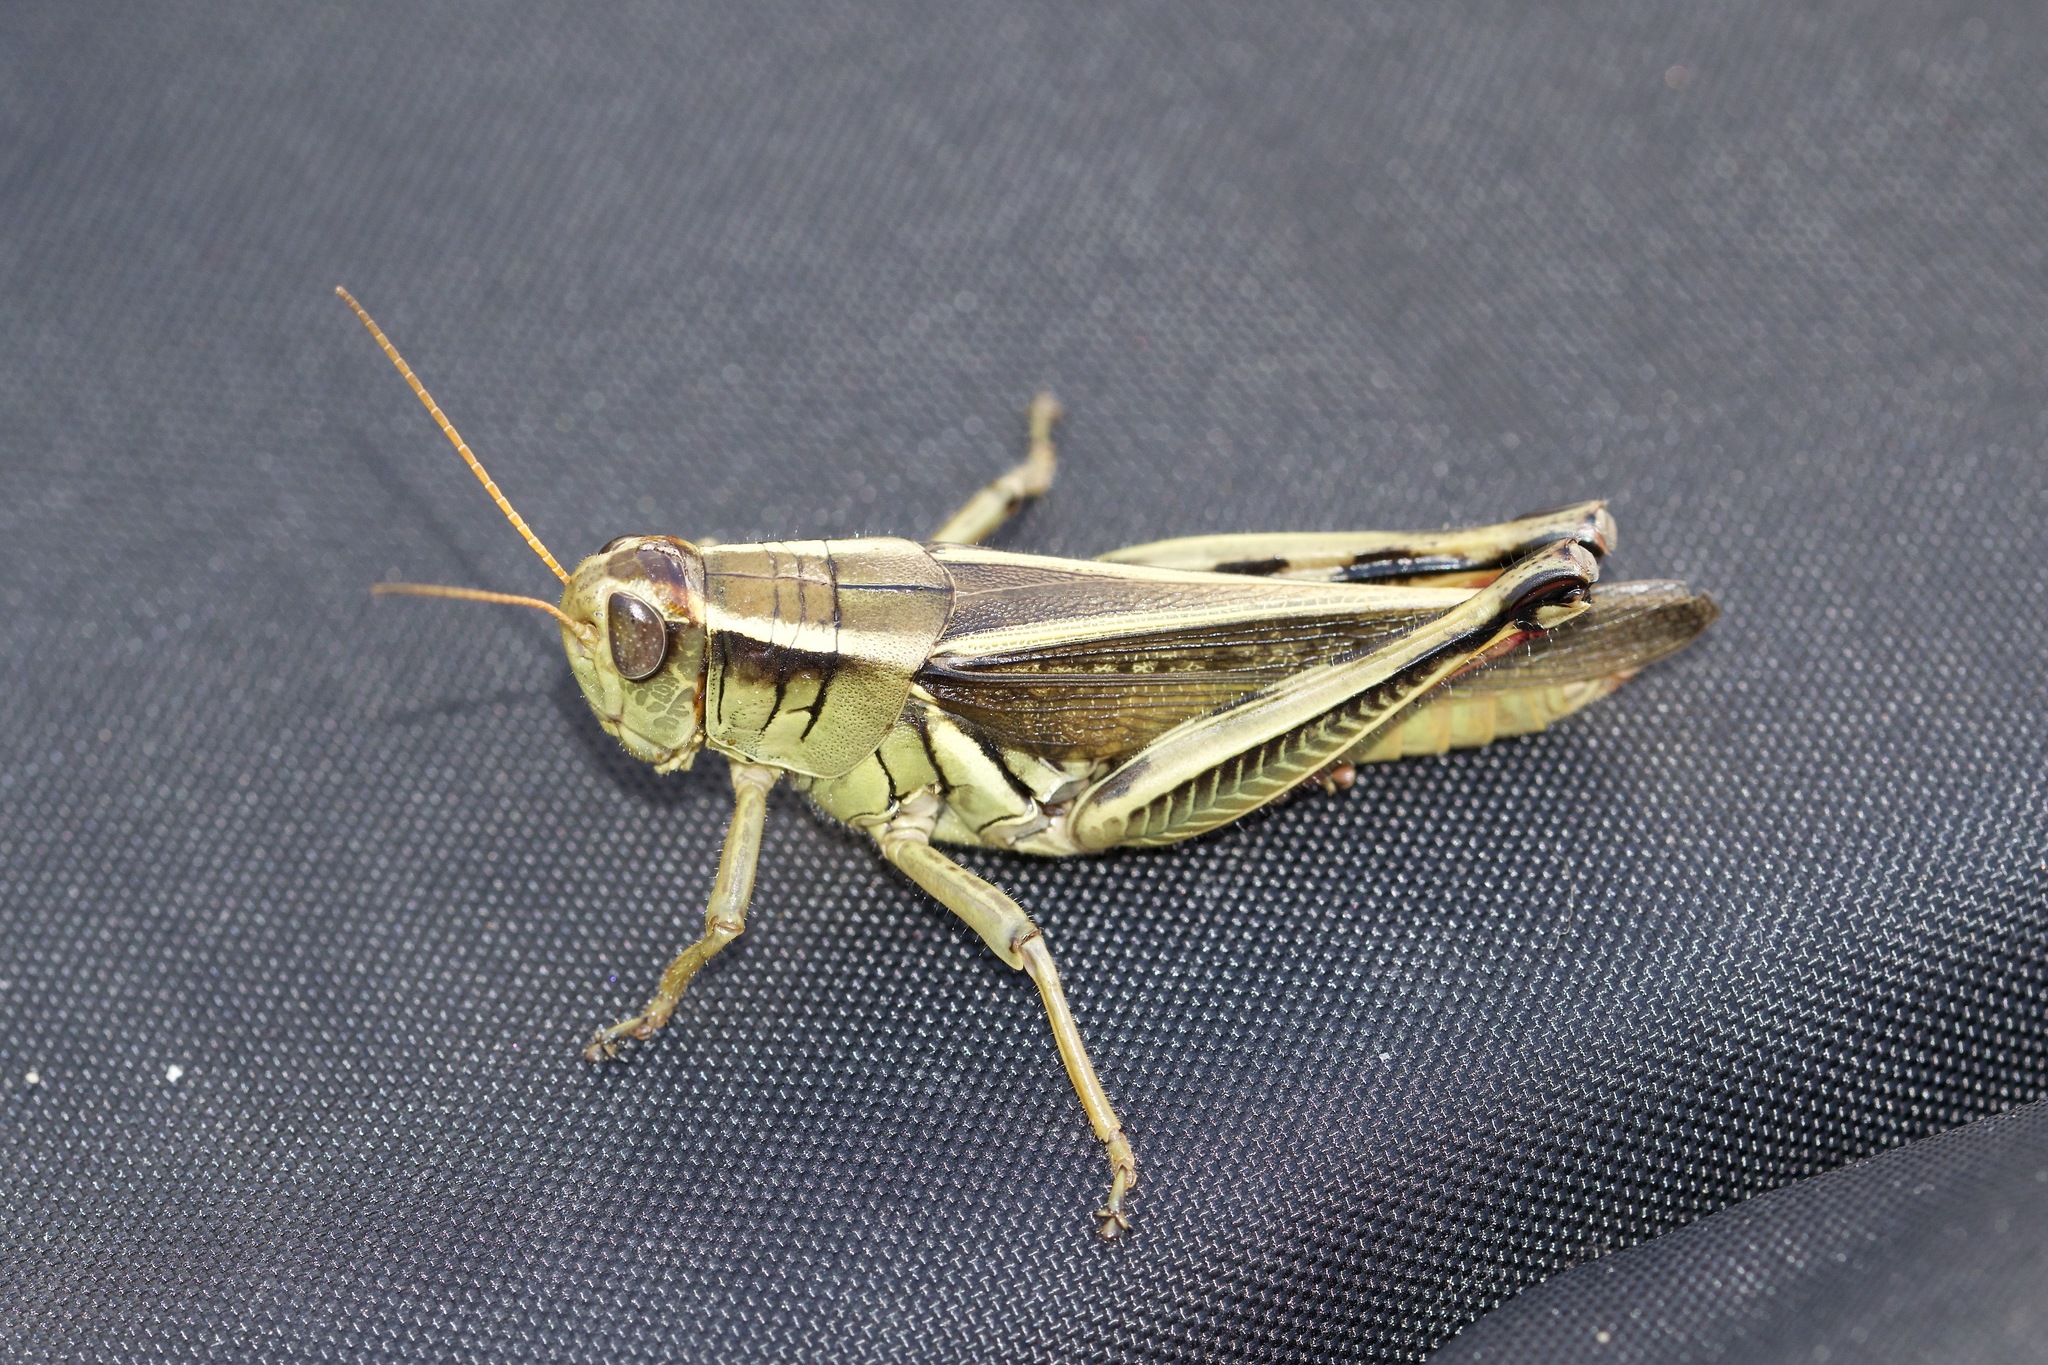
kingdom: Animalia
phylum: Arthropoda
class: Insecta
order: Orthoptera
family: Acrididae
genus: Melanoplus
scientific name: Melanoplus bivittatus
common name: Two-striped grasshopper
